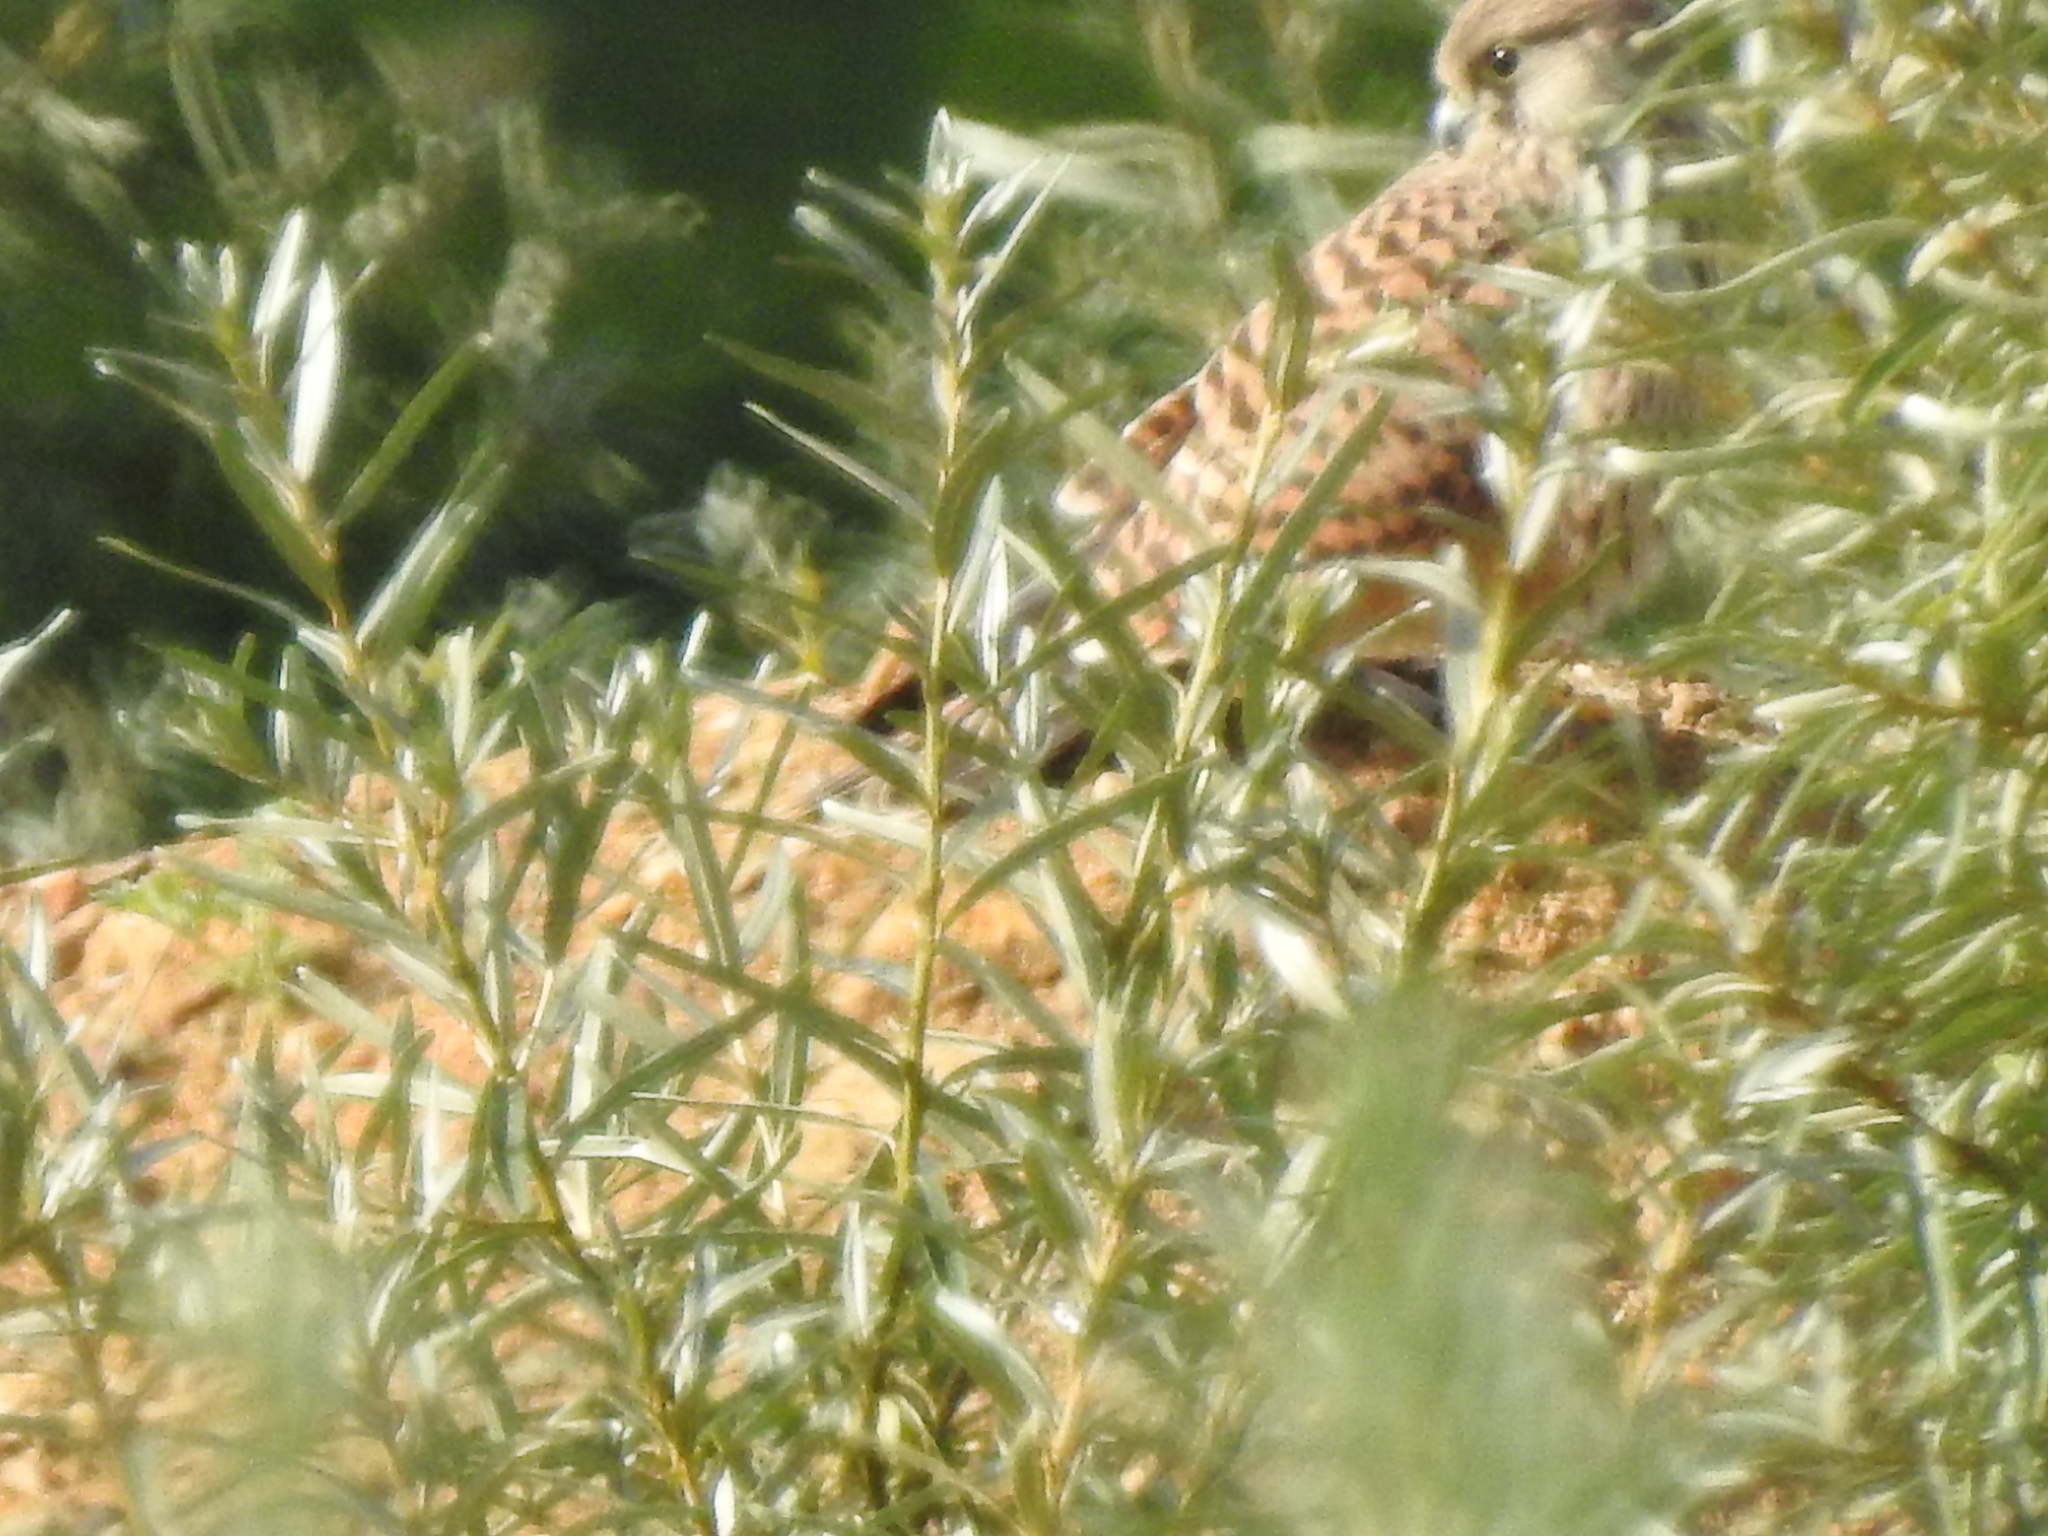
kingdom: Animalia
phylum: Chordata
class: Aves
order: Falconiformes
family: Falconidae
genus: Falco
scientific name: Falco tinnunculus
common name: Common kestrel
